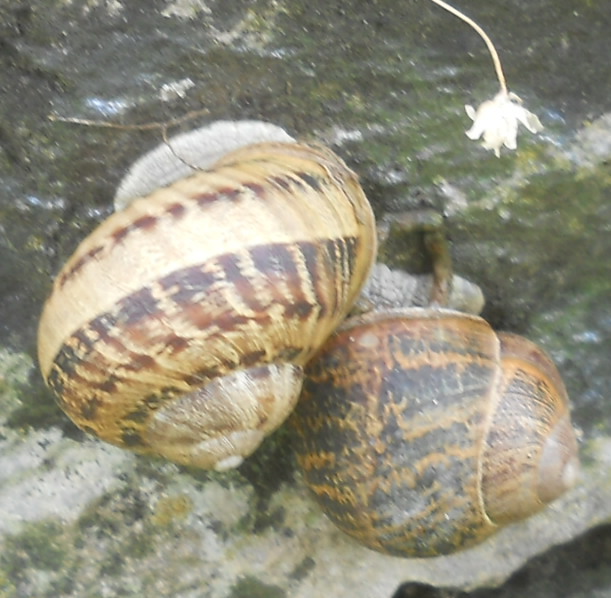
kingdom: Animalia
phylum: Mollusca
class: Gastropoda
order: Stylommatophora
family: Helicidae
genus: Cornu
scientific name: Cornu aspersum
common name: Brown garden snail
